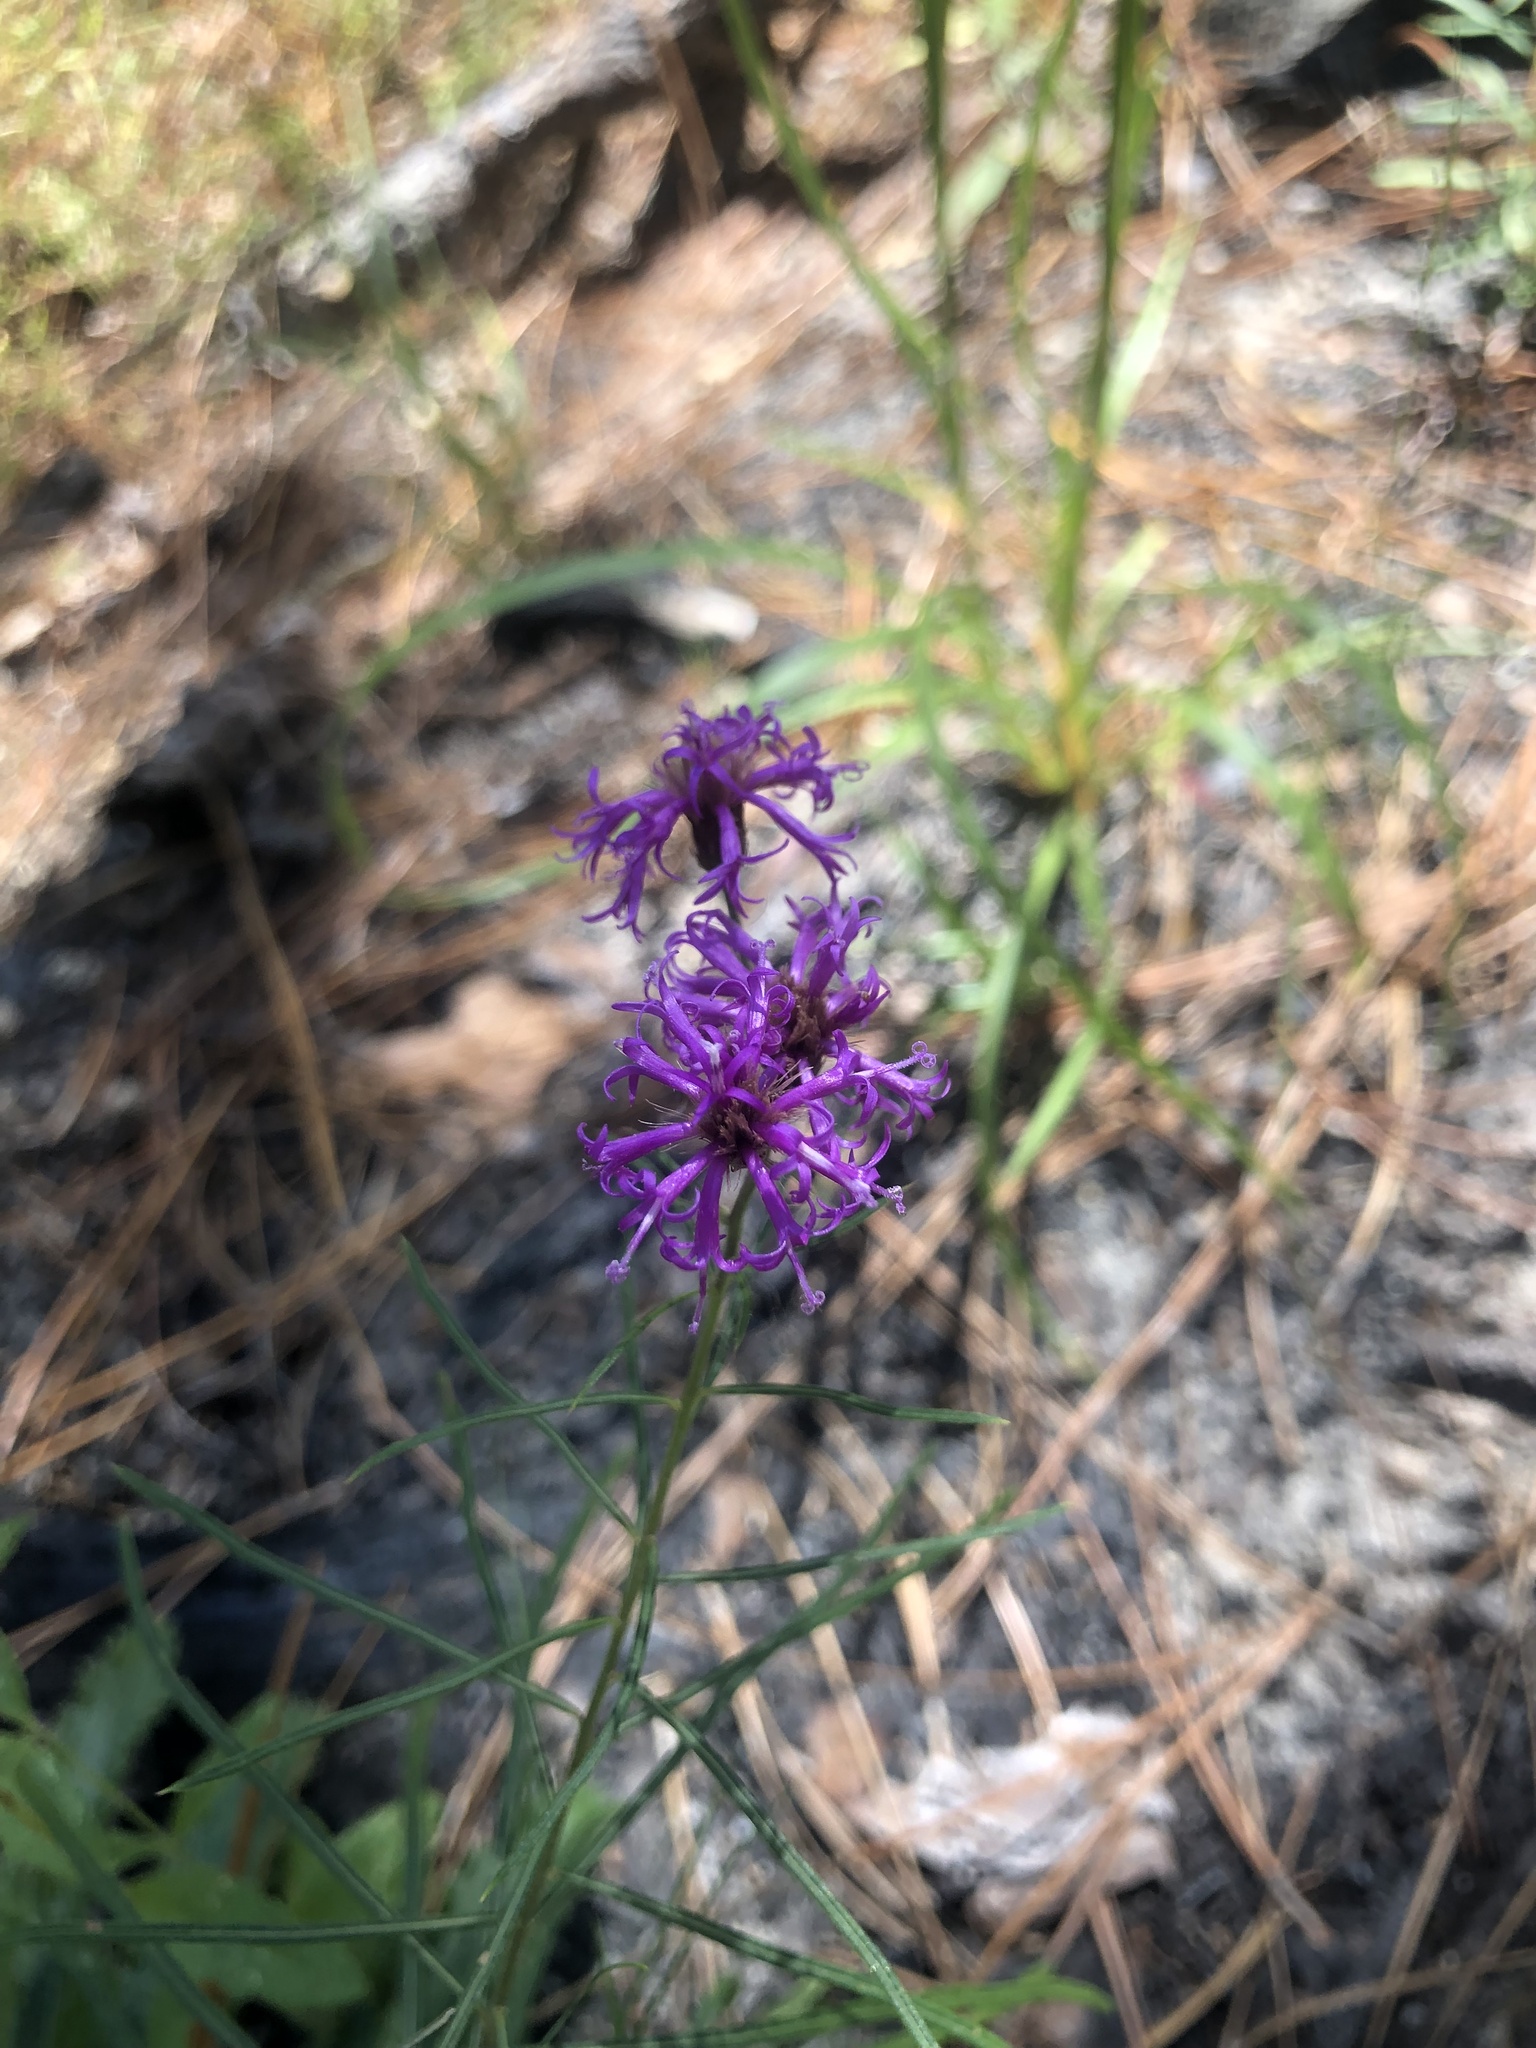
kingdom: Plantae
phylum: Tracheophyta
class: Magnoliopsida
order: Asterales
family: Asteraceae
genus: Vernonia
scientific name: Vernonia angustifolia
